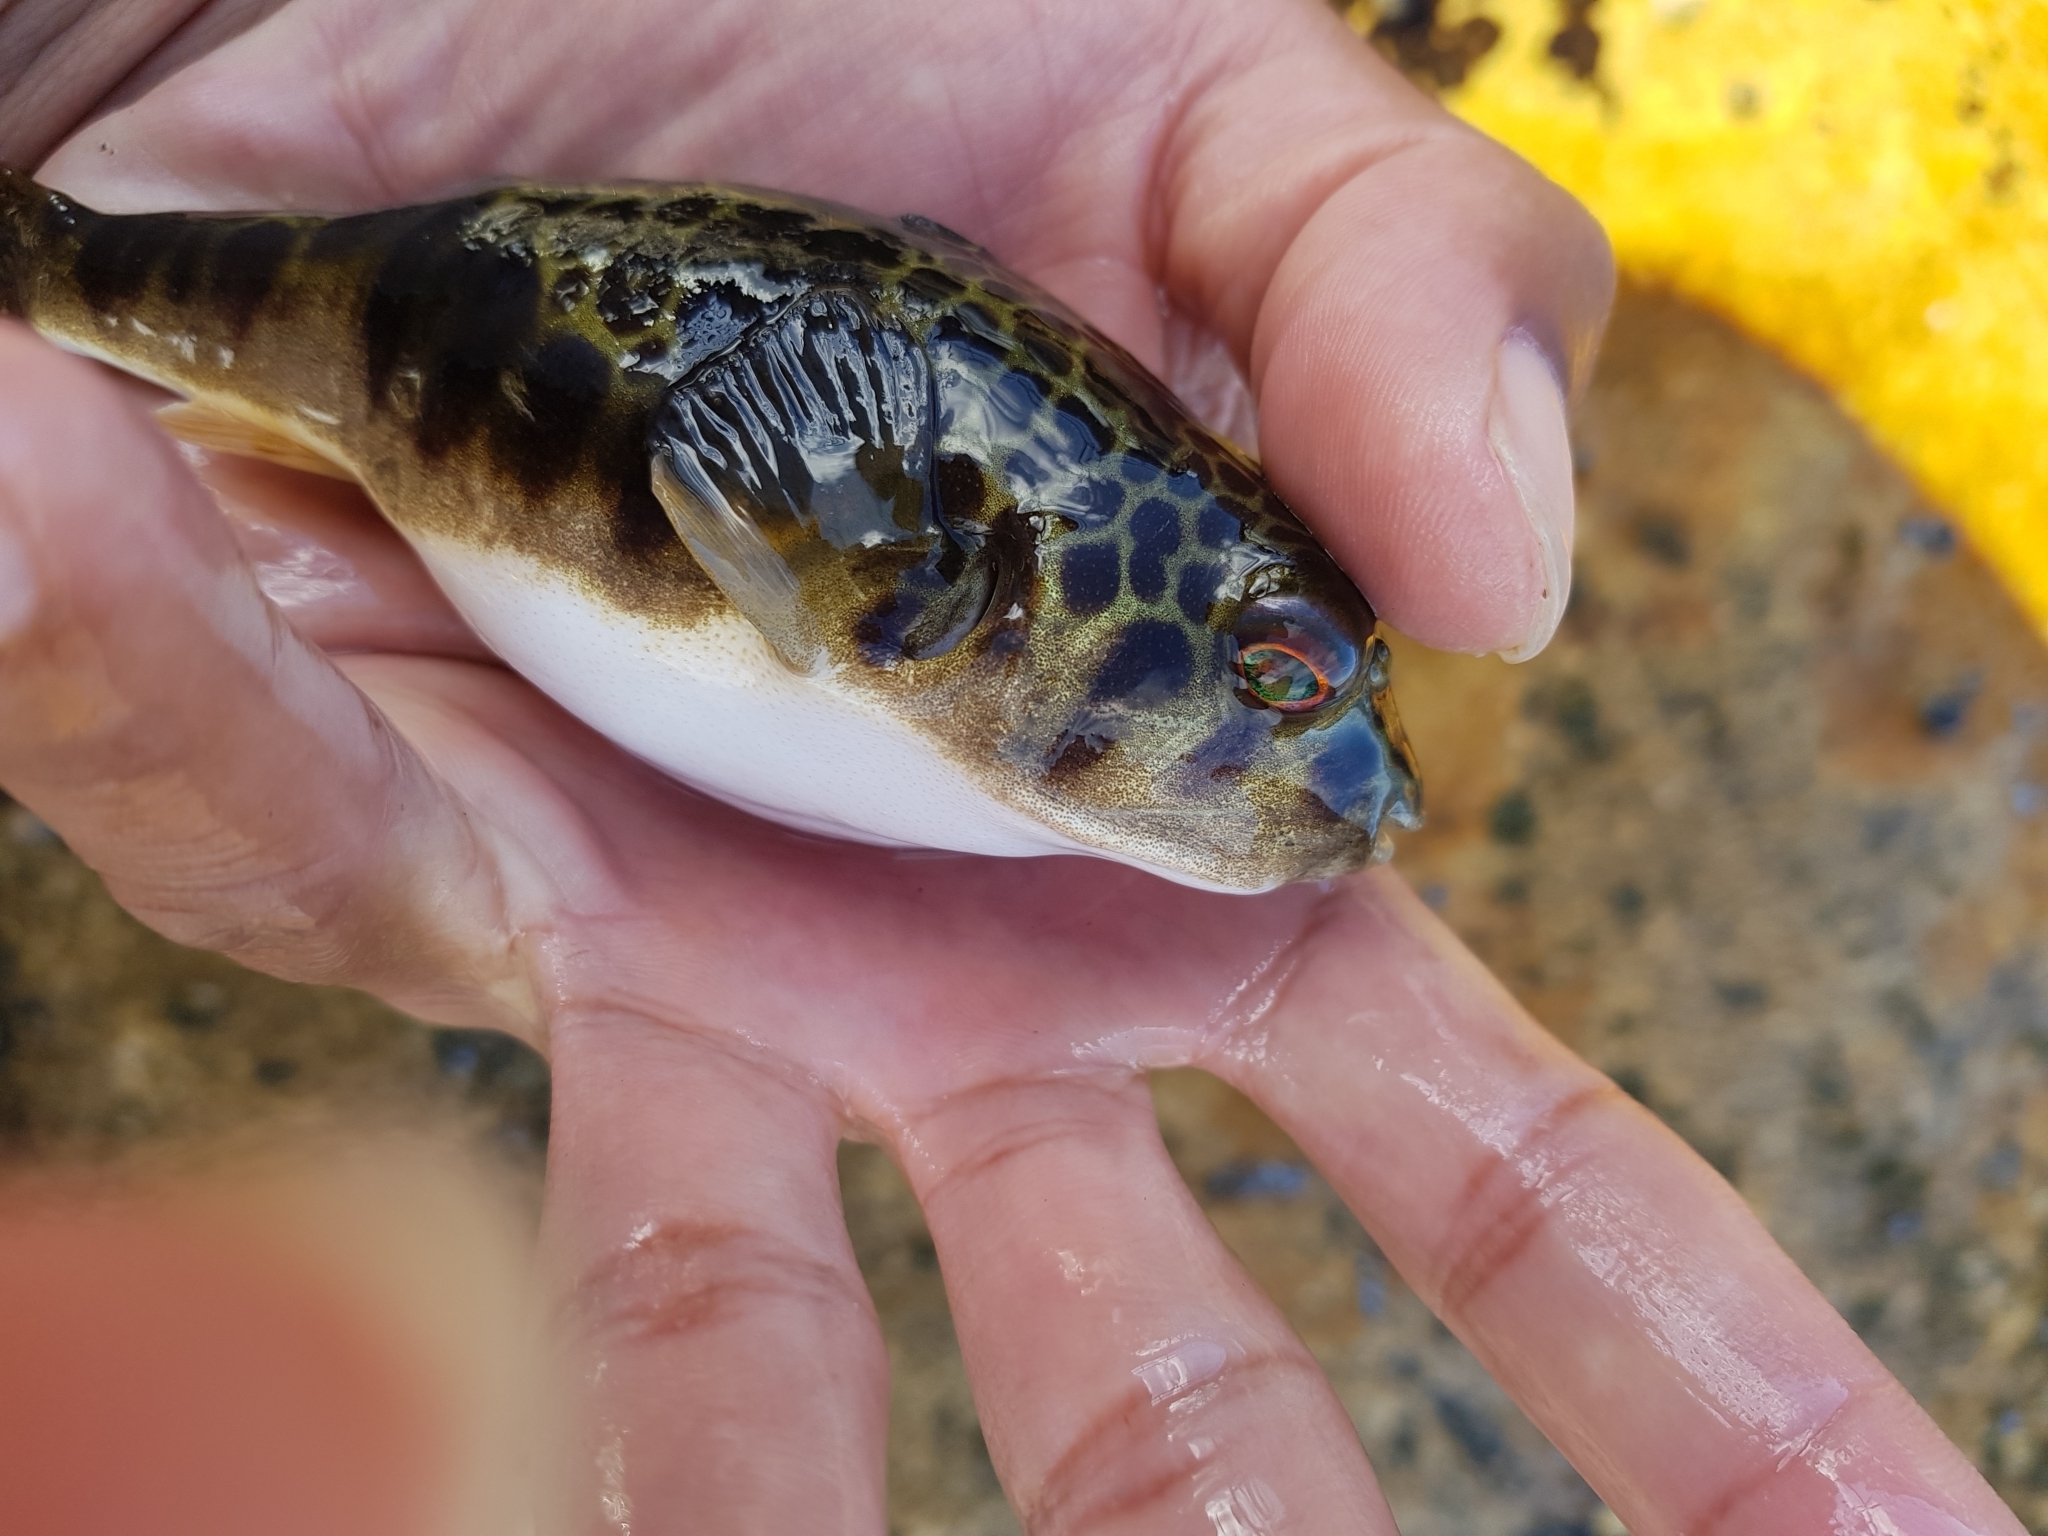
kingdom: Animalia
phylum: Chordata
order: Tetraodontiformes
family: Tetraodontidae
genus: Tetractenos
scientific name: Tetractenos glaber
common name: Smooth toadfish
